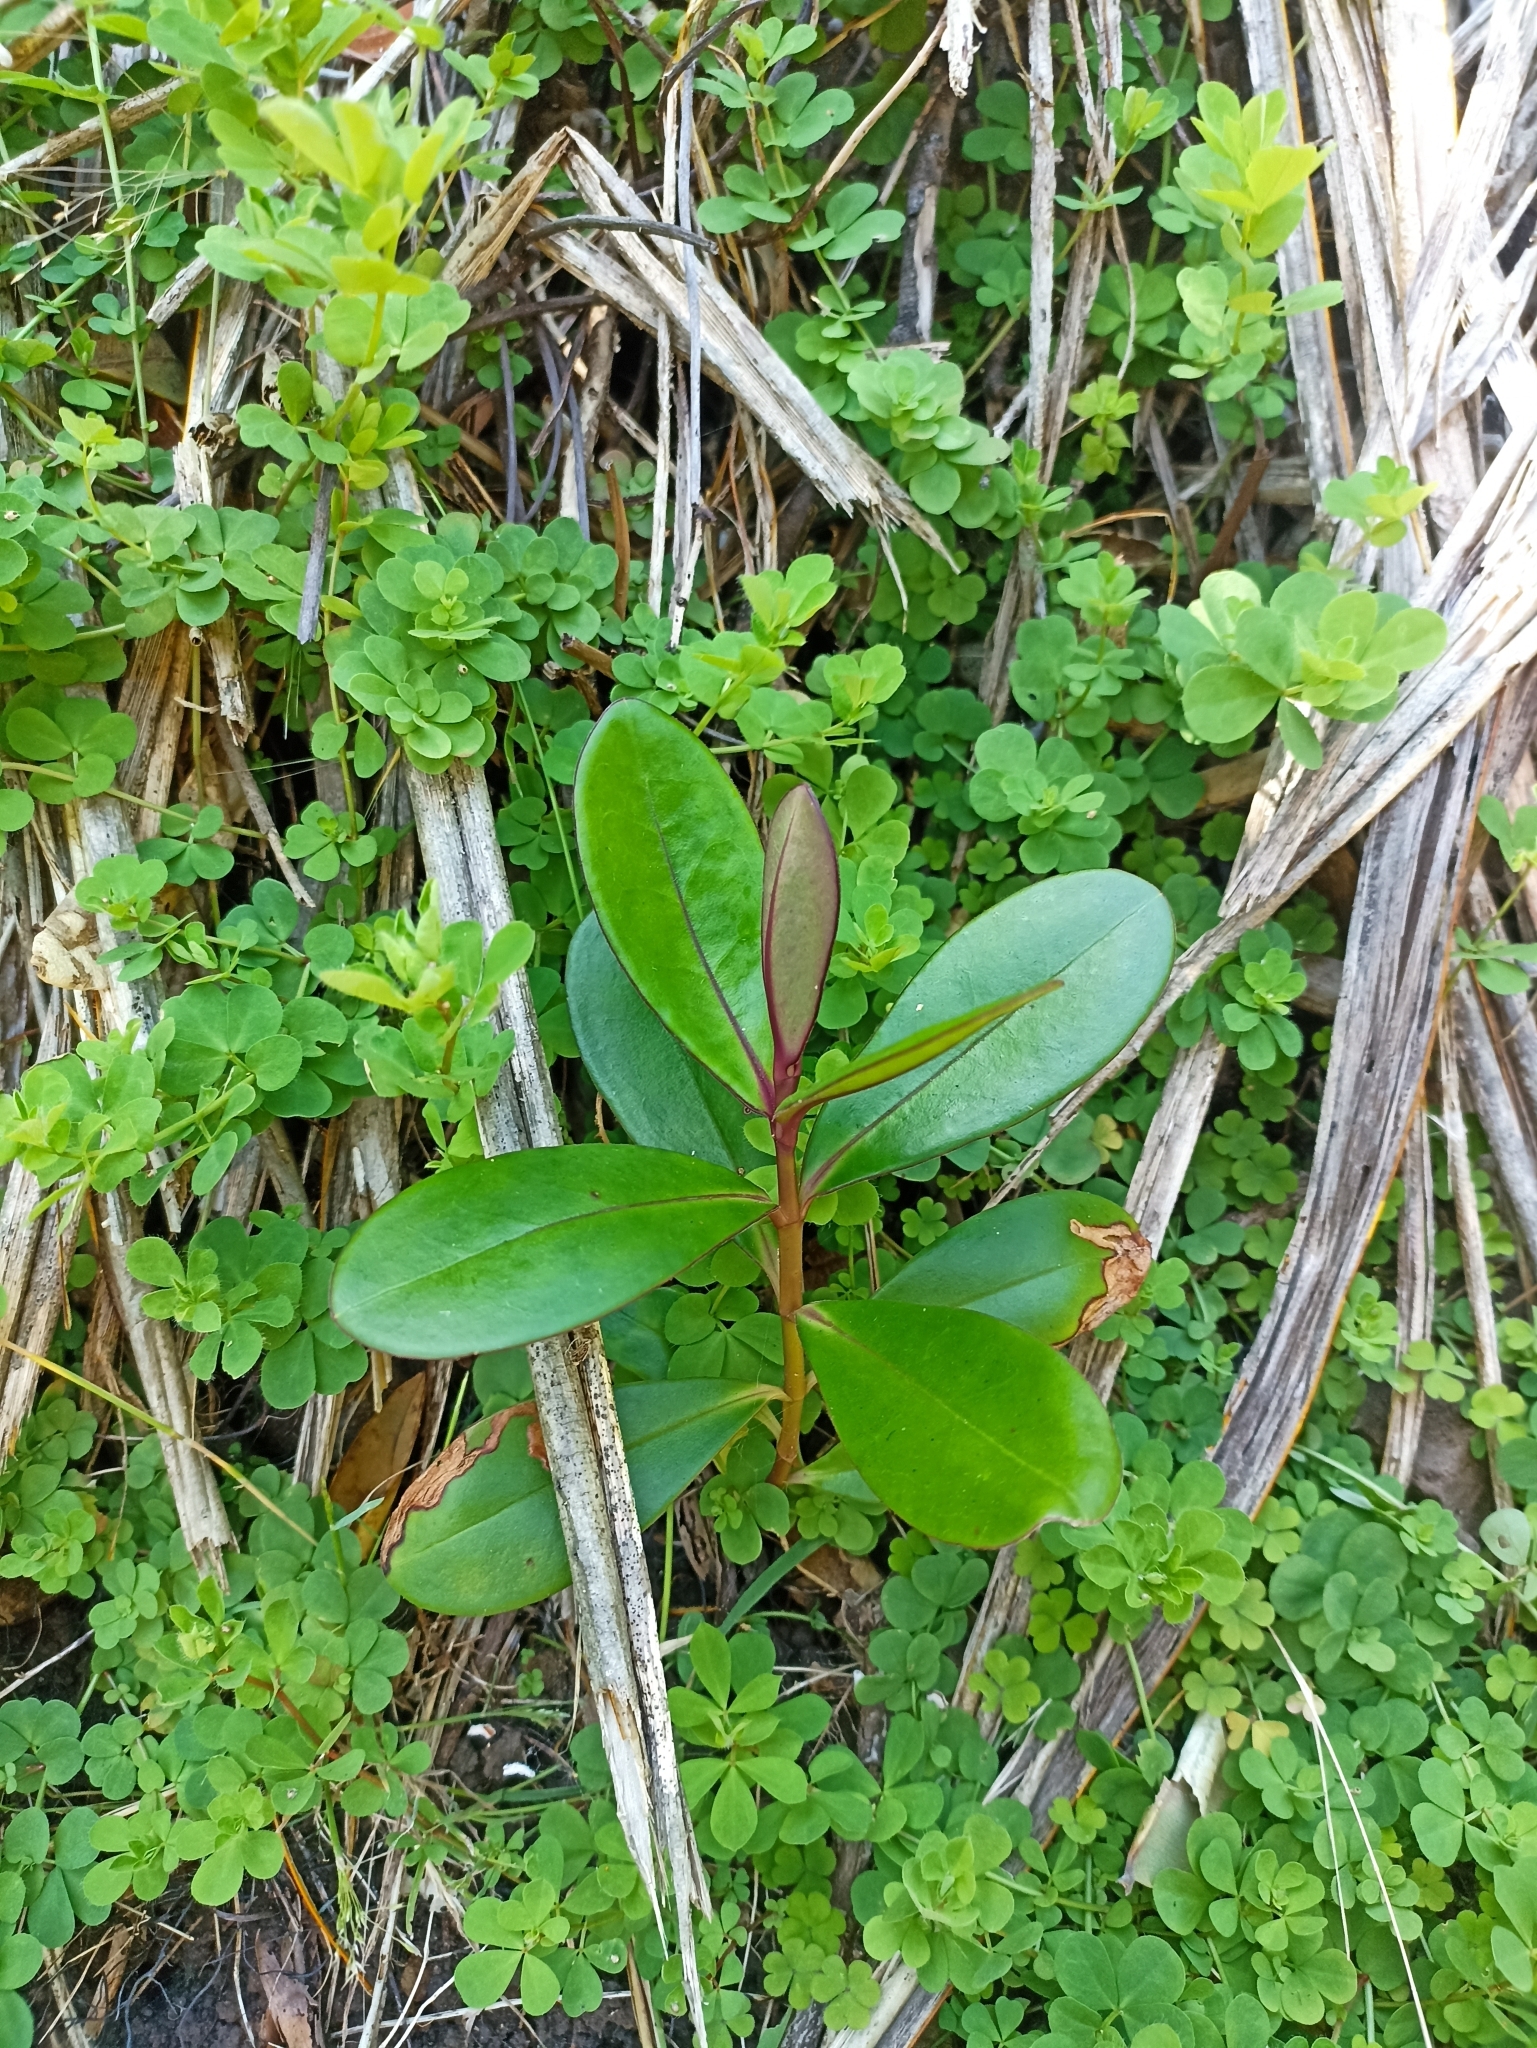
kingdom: Plantae
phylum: Tracheophyta
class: Magnoliopsida
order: Lamiales
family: Plantaginaceae
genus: Veronica
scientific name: Veronica speciosa
